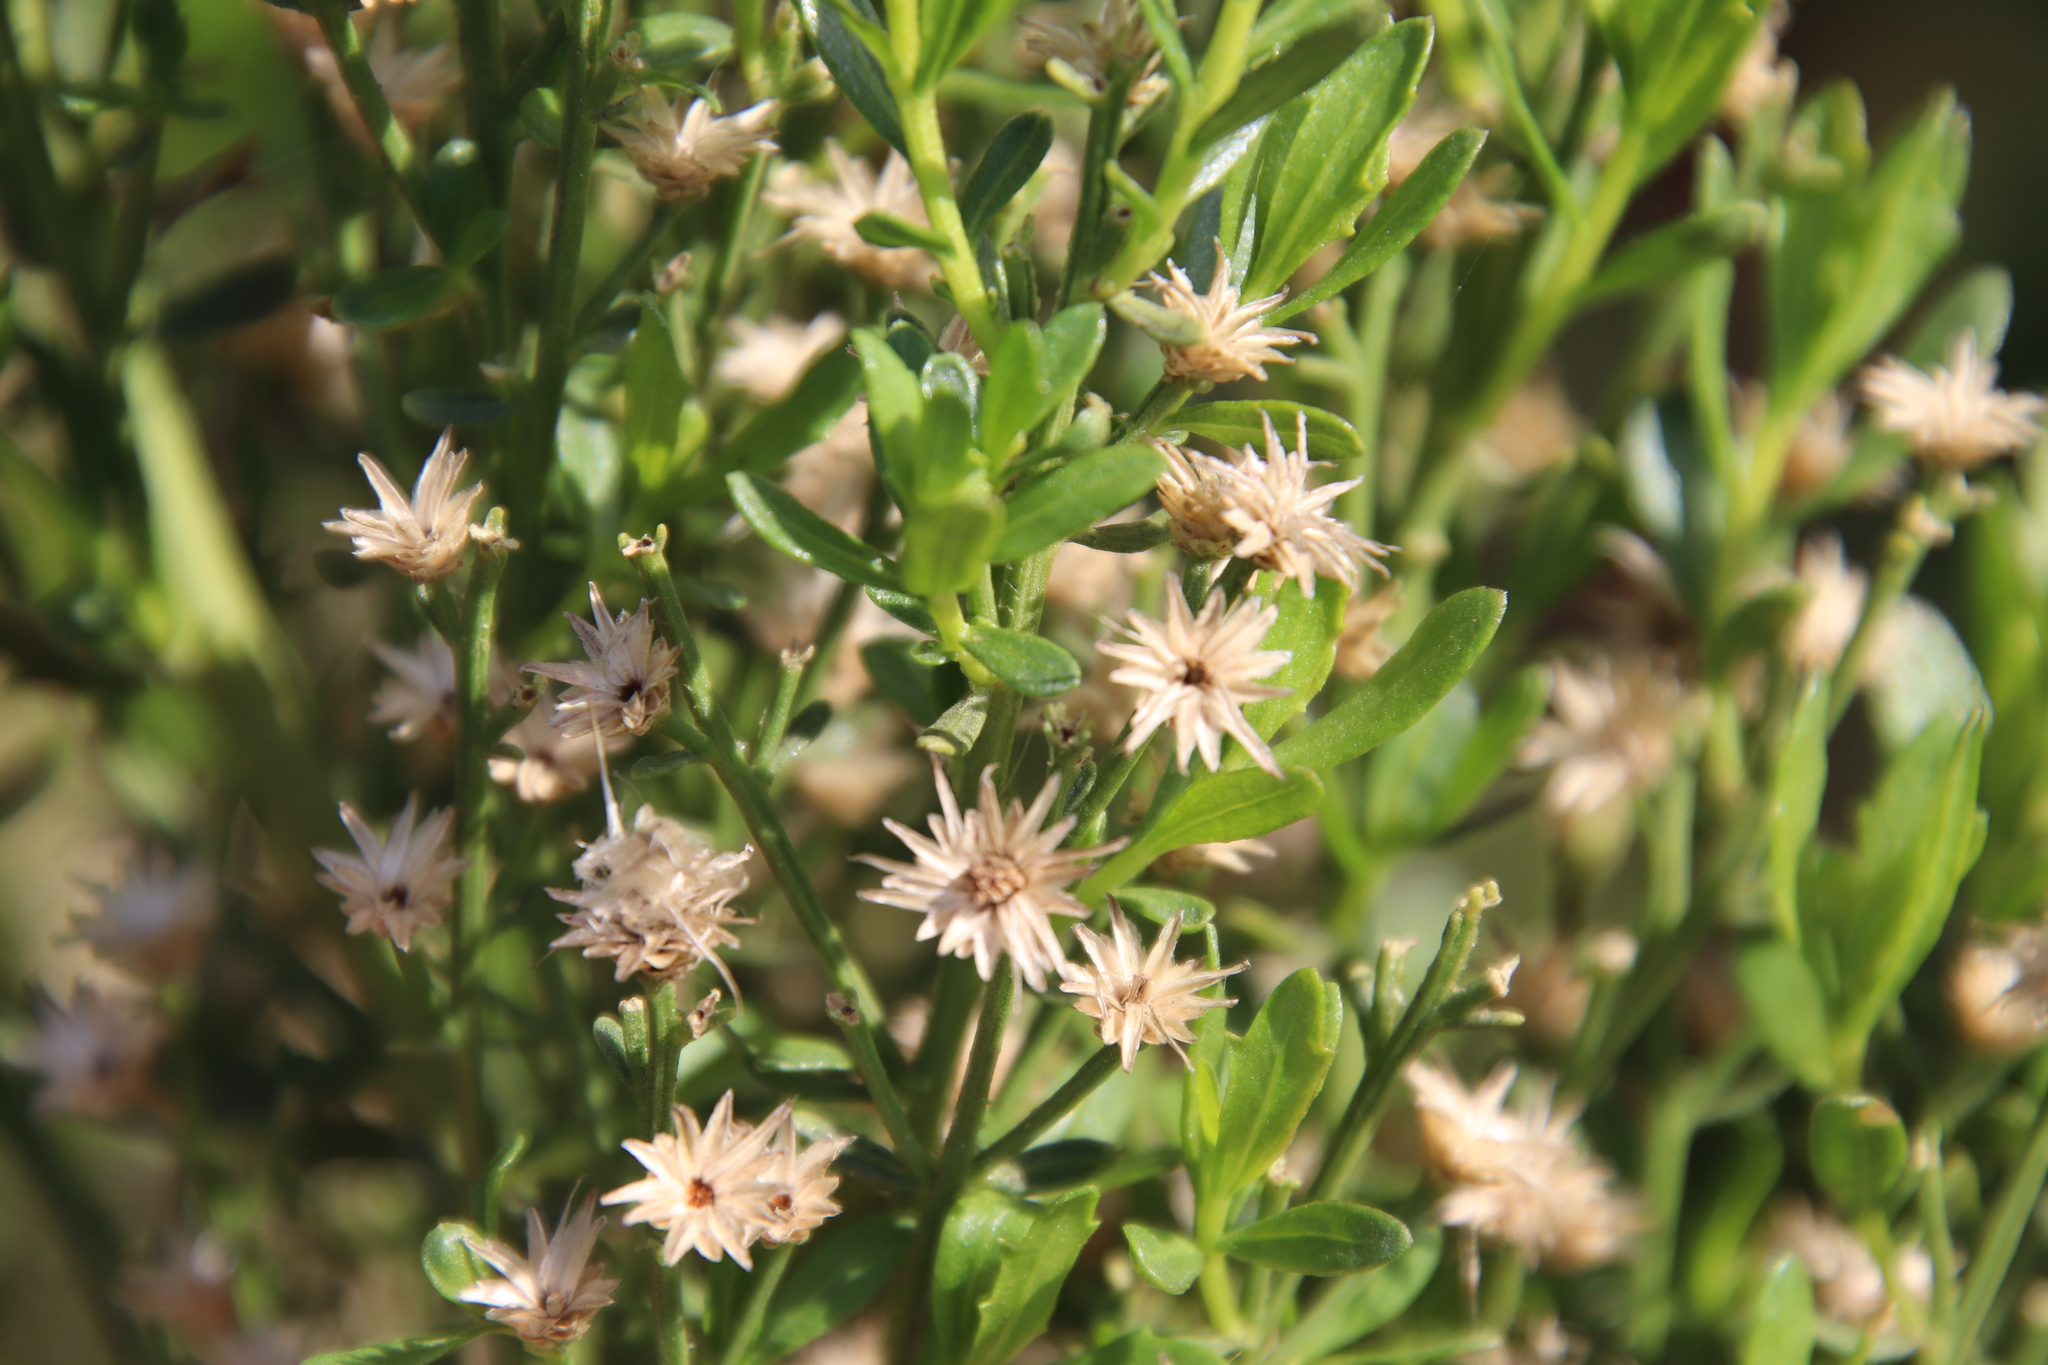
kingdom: Plantae
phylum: Tracheophyta
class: Magnoliopsida
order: Asterales
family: Asteraceae
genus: Baccharis
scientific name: Baccharis pilularis
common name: Coyotebrush
